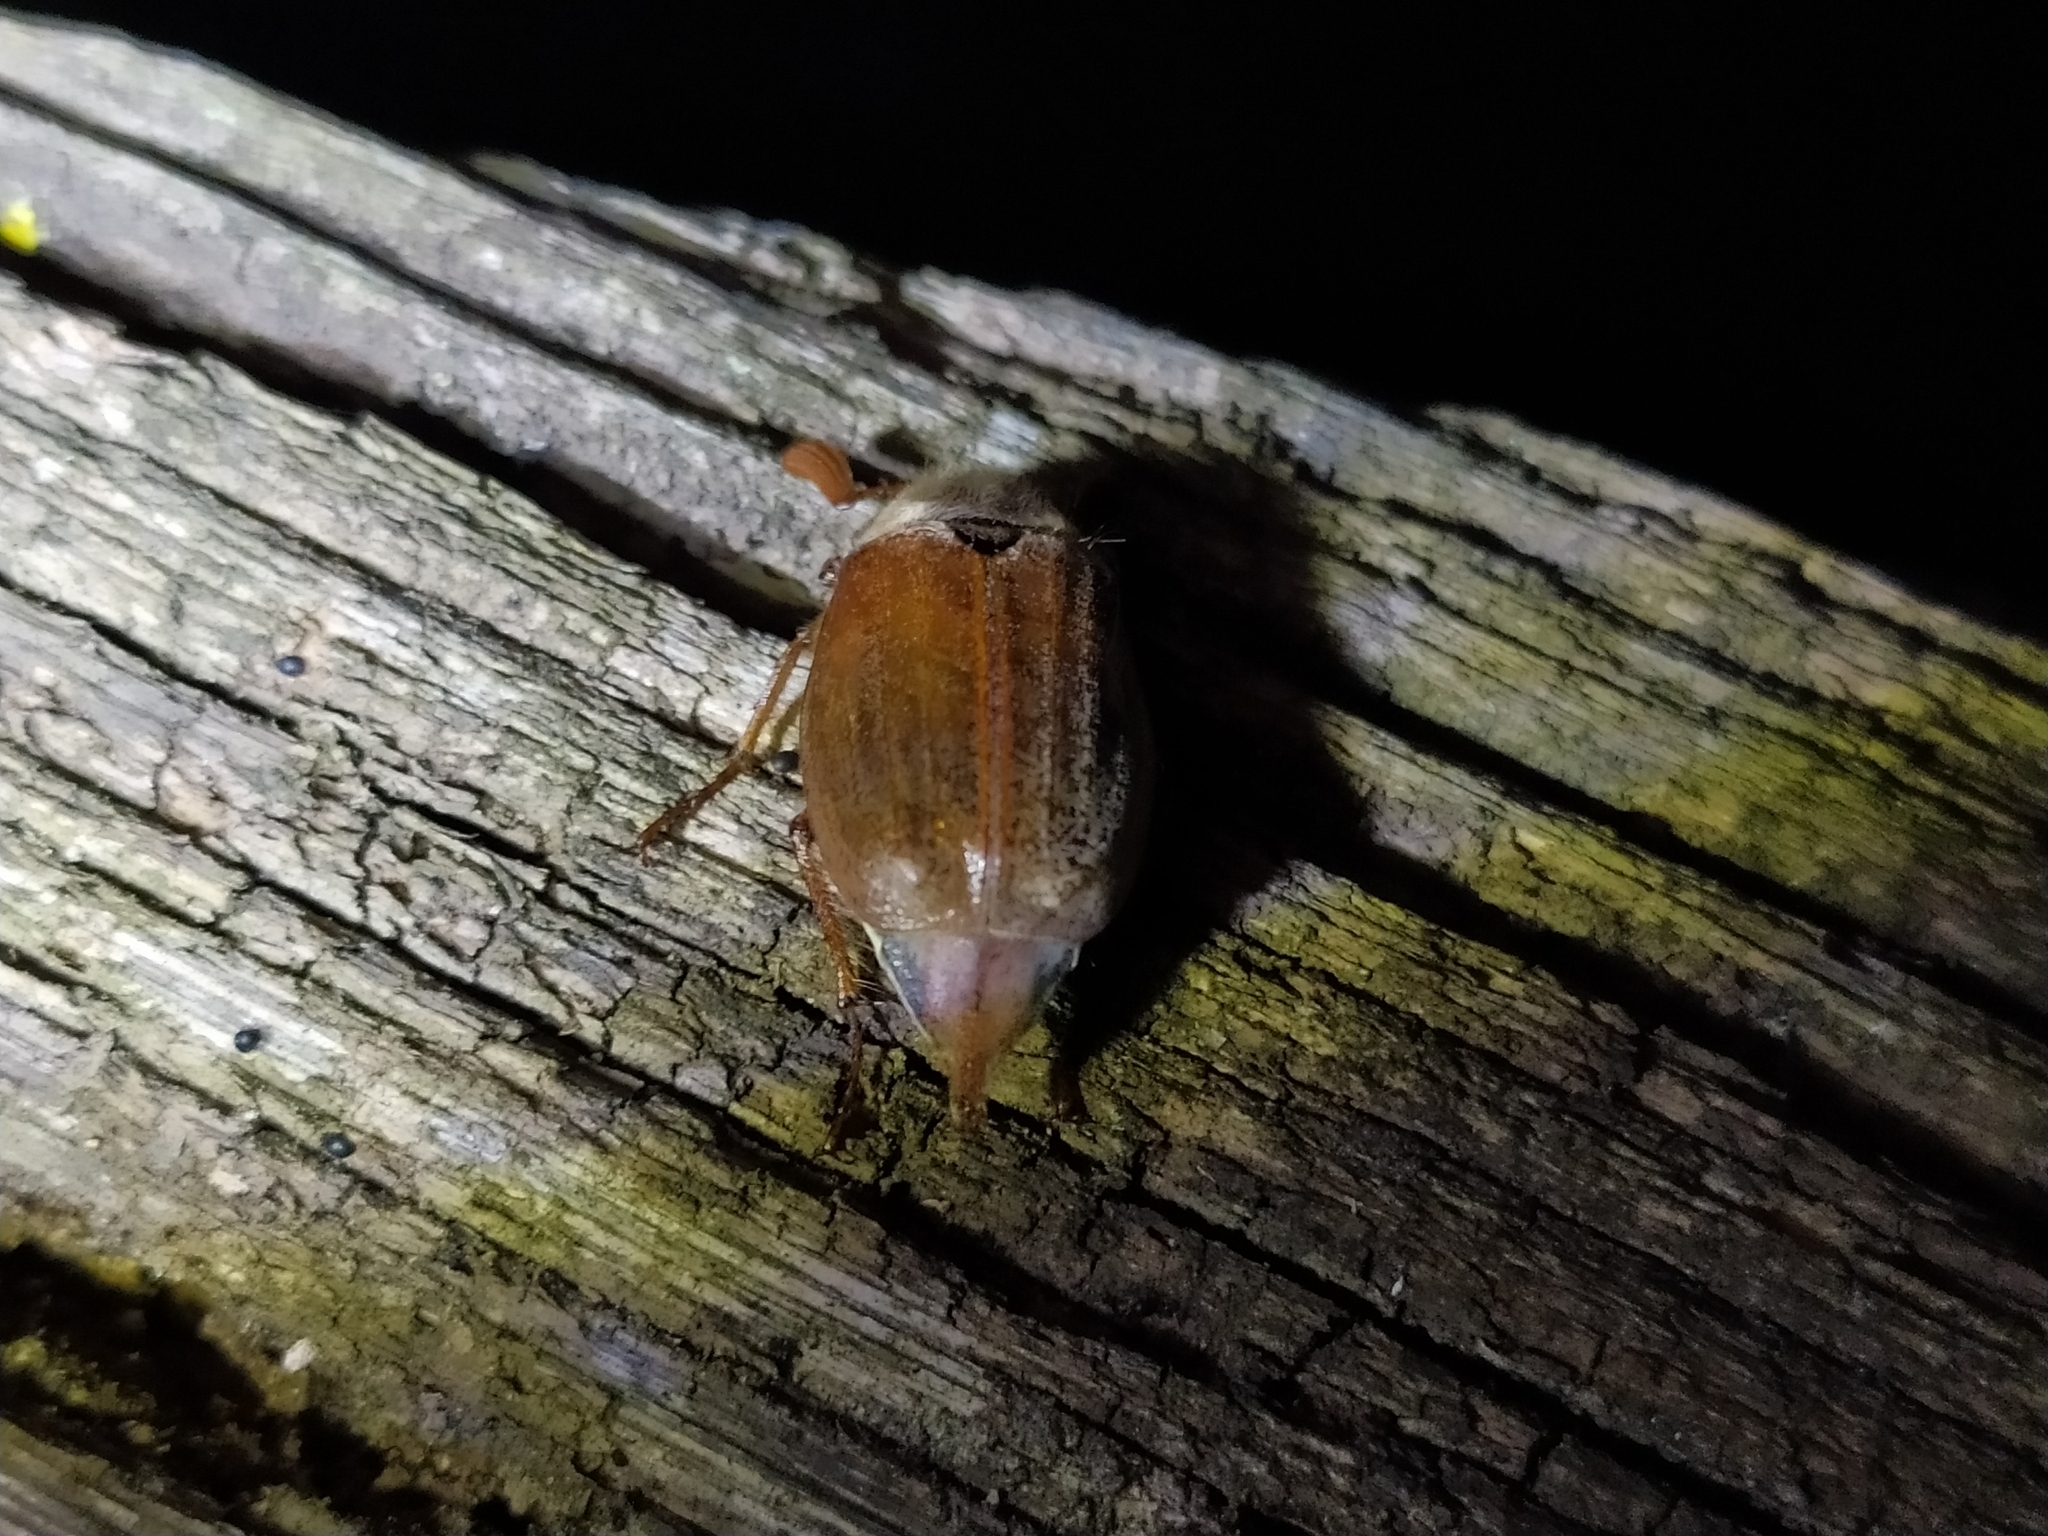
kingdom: Animalia
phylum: Arthropoda
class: Insecta
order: Coleoptera
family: Scarabaeidae
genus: Melolontha
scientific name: Melolontha melolontha
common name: Cockchafer maybeetle
